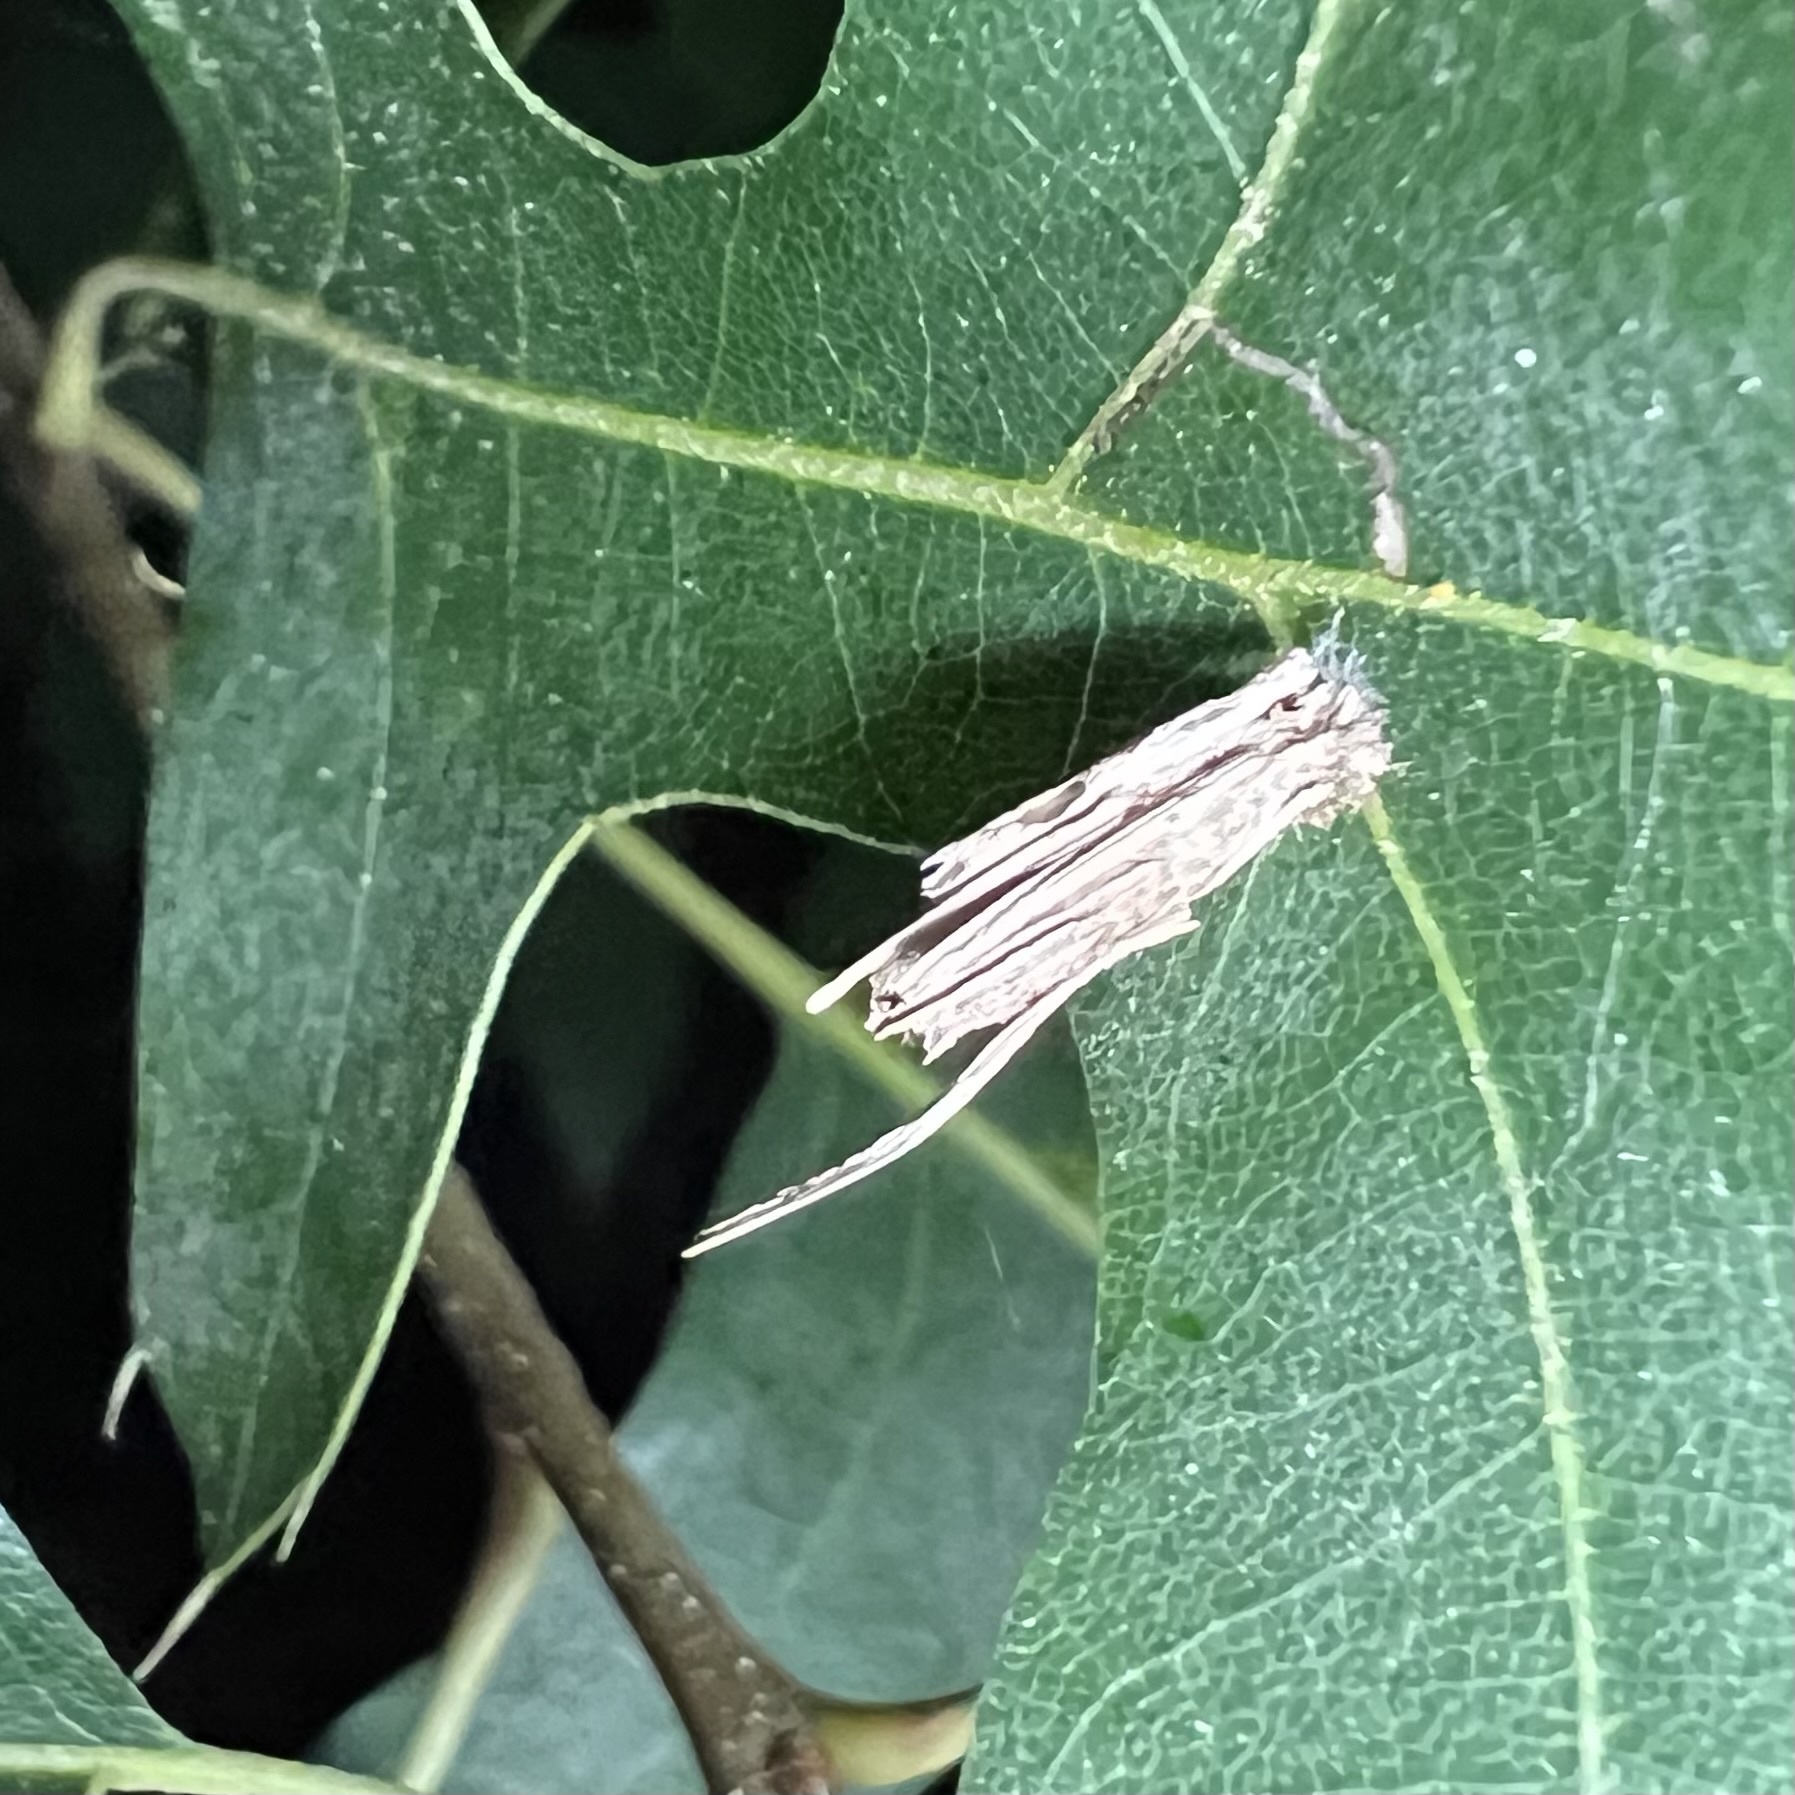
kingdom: Animalia
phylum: Arthropoda
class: Insecta
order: Lepidoptera
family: Psychidae
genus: Psyche
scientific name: Psyche casta
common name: Common sweep
